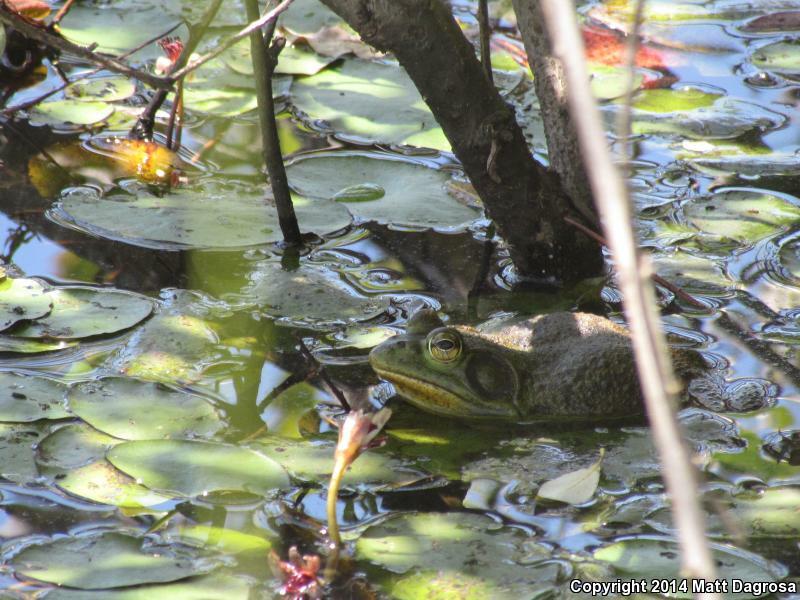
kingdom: Animalia
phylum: Chordata
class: Amphibia
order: Anura
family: Ranidae
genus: Lithobates
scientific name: Lithobates catesbeianus
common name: American bullfrog
